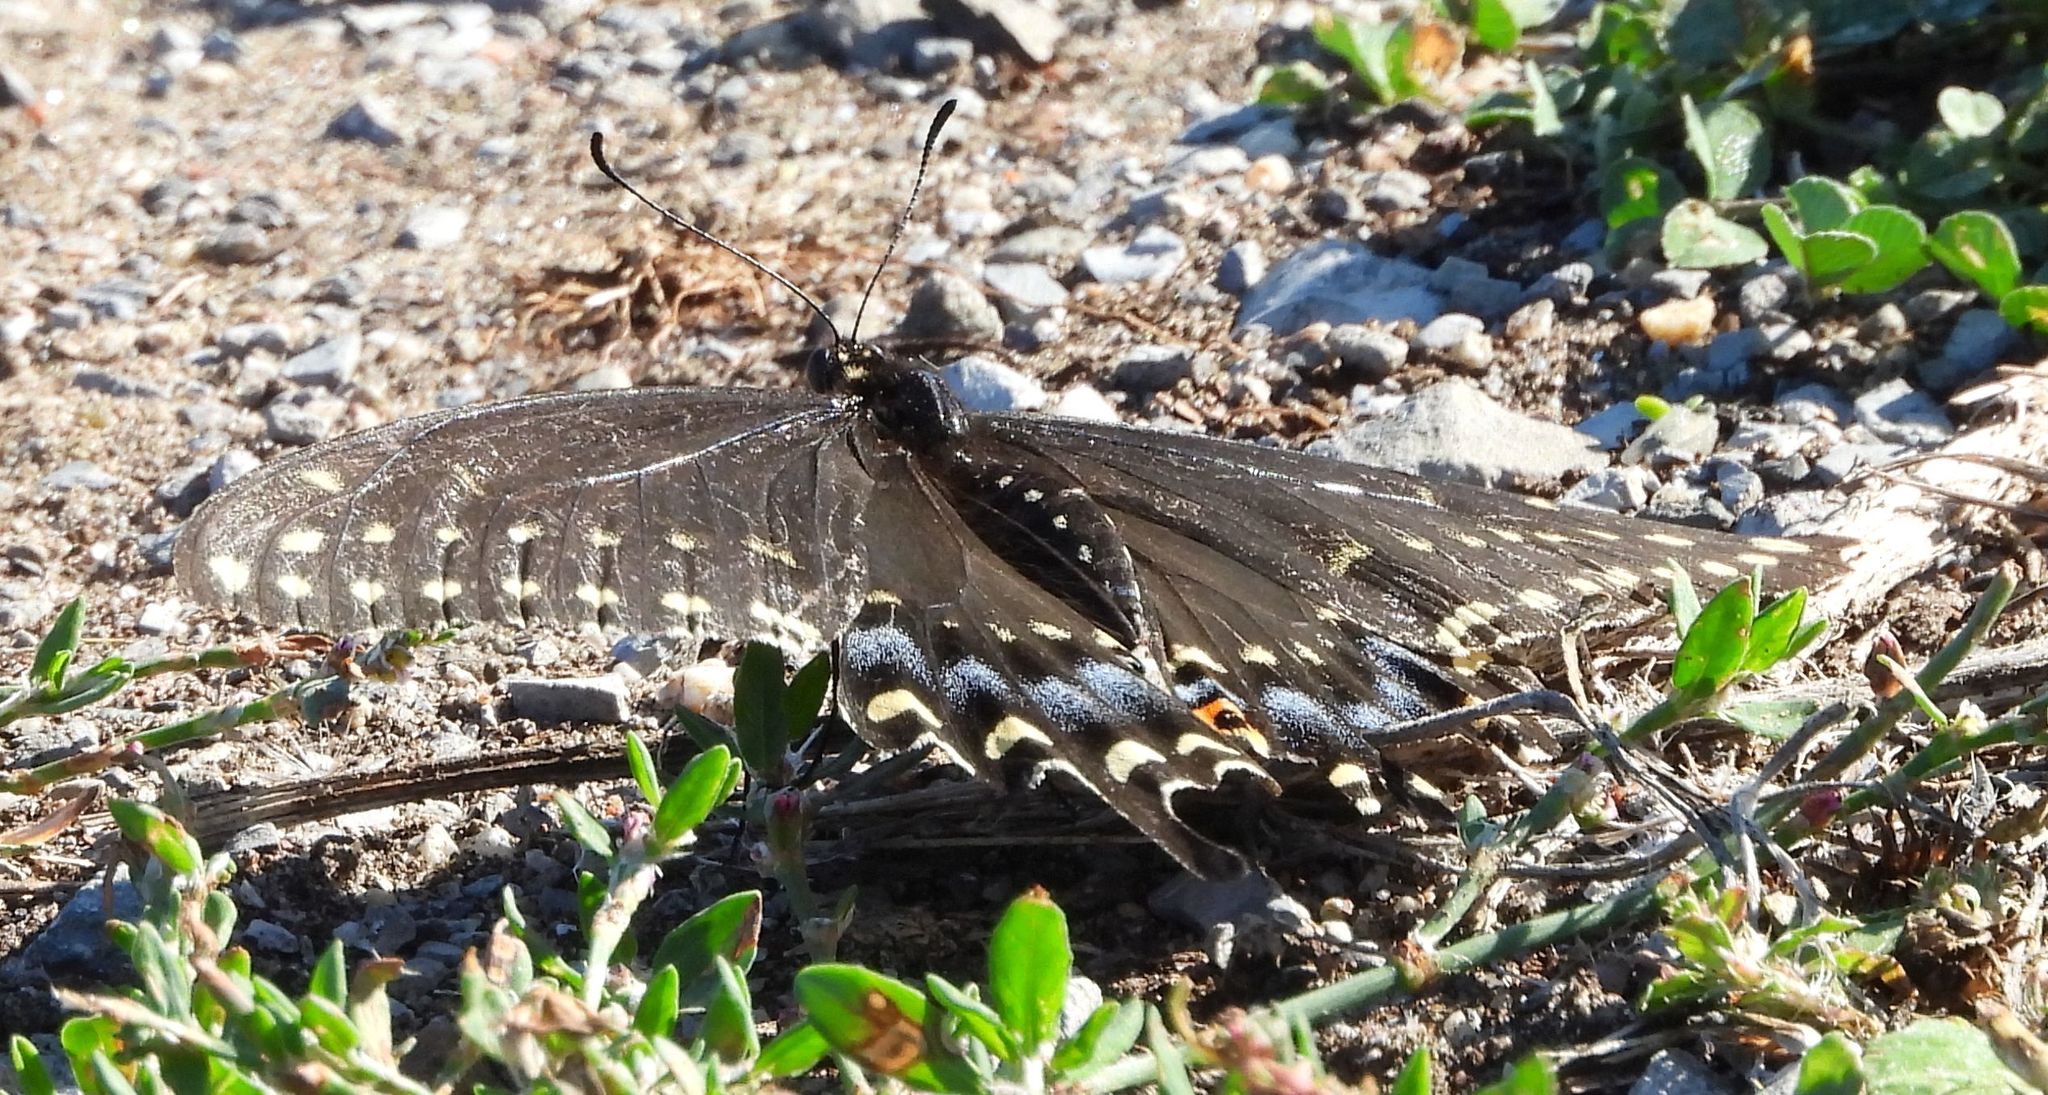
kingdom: Animalia
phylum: Arthropoda
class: Insecta
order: Lepidoptera
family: Papilionidae
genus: Papilio
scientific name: Papilio polyxenes
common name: Black swallowtail
